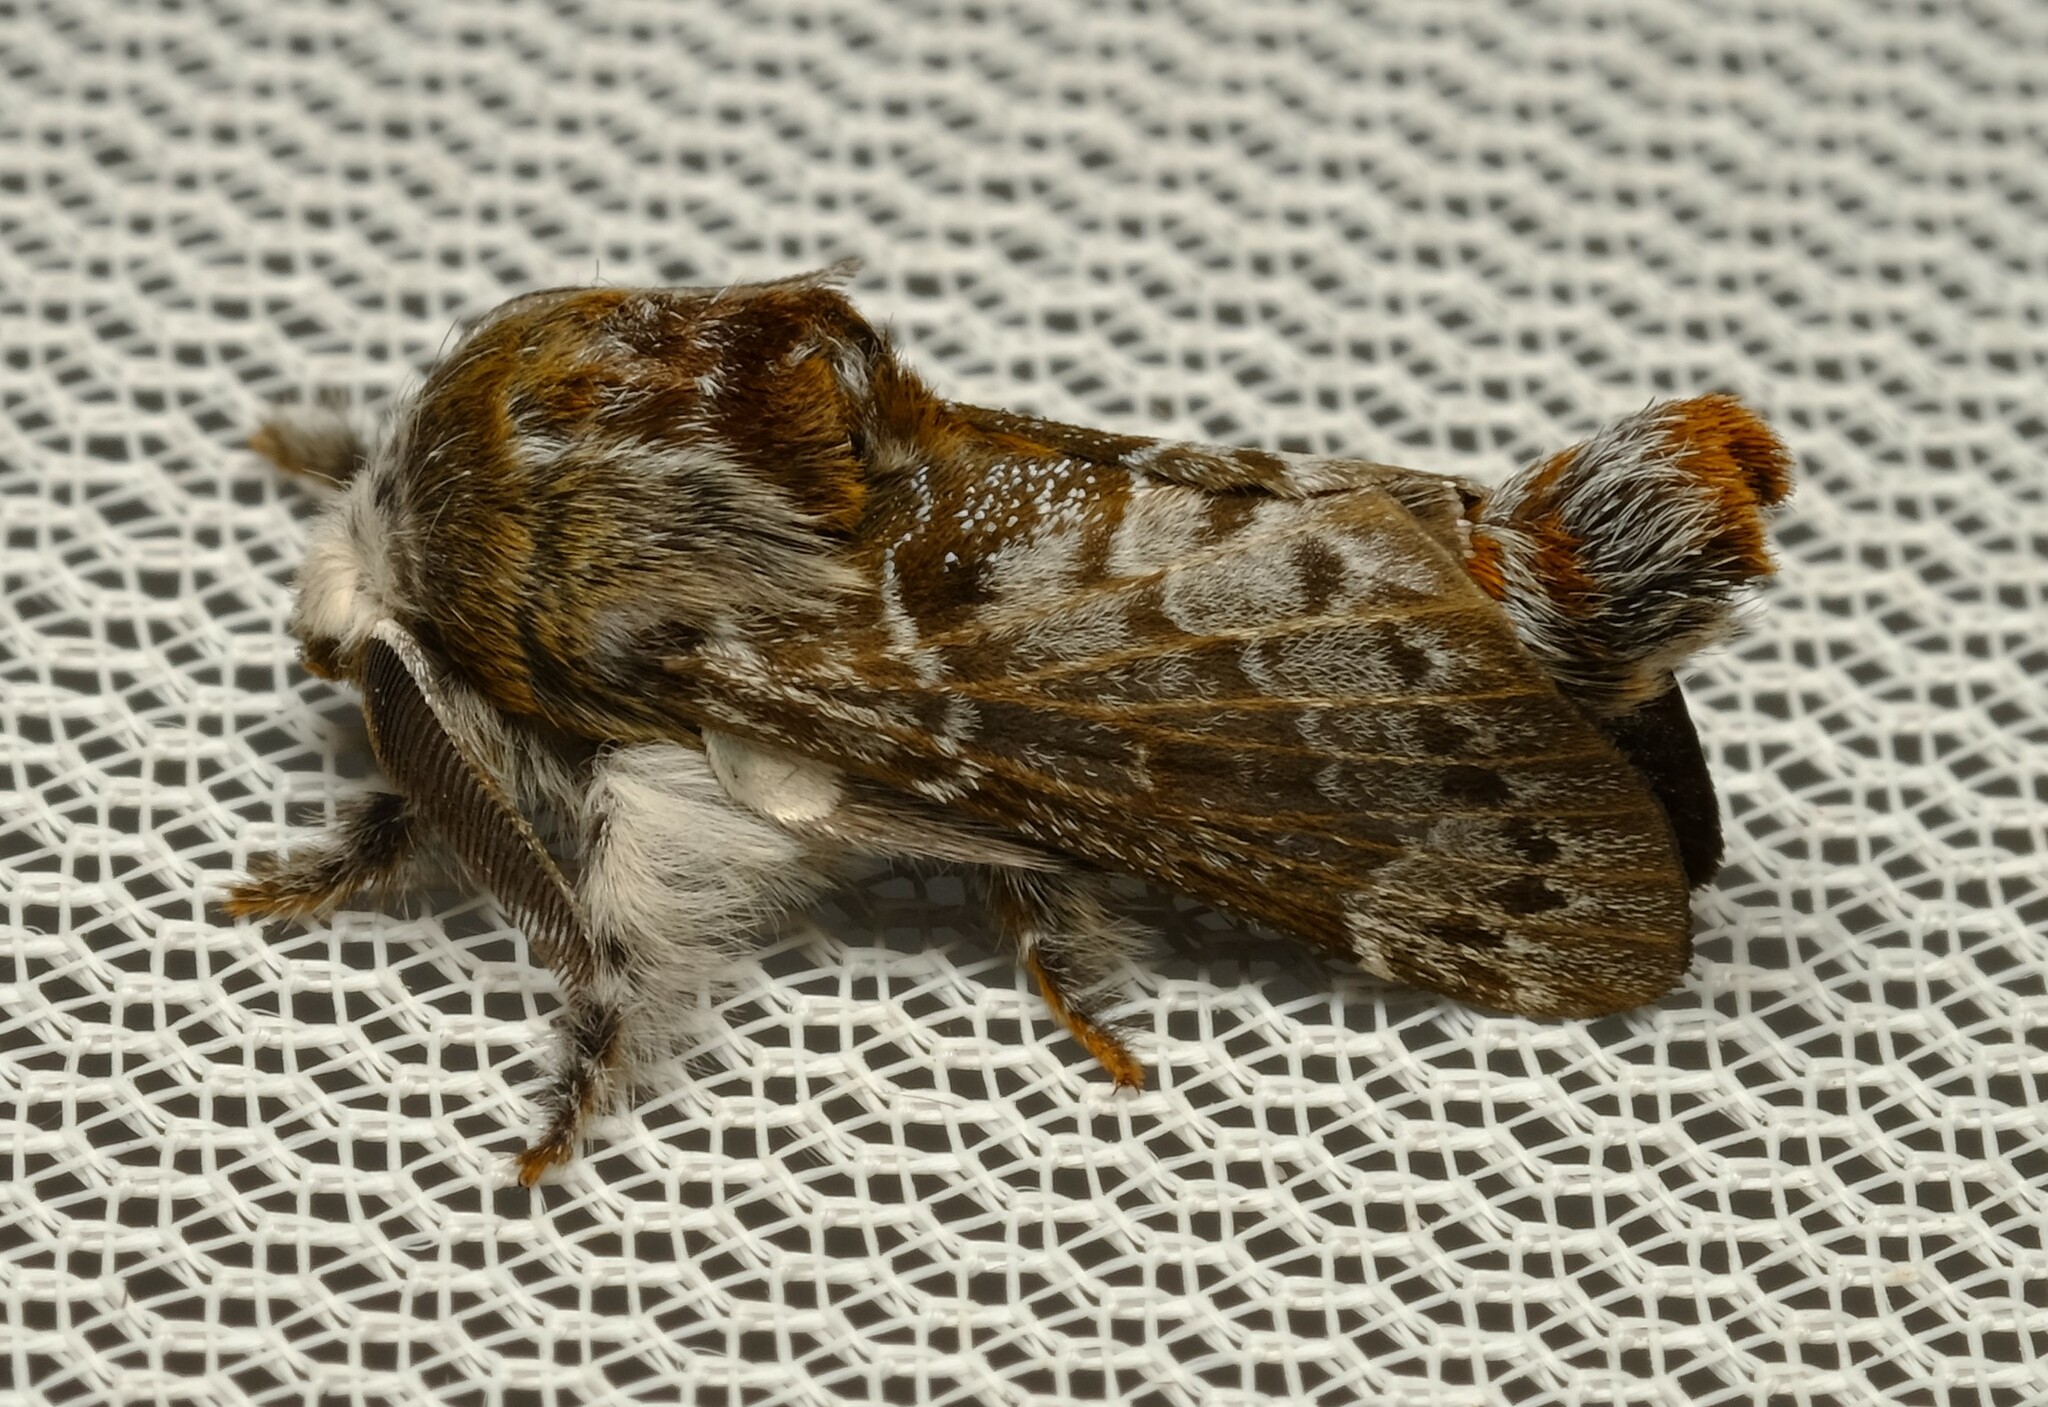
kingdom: Animalia
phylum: Arthropoda
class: Insecta
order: Lepidoptera
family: Lasiocampidae
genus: Genduara
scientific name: Genduara subnotata
